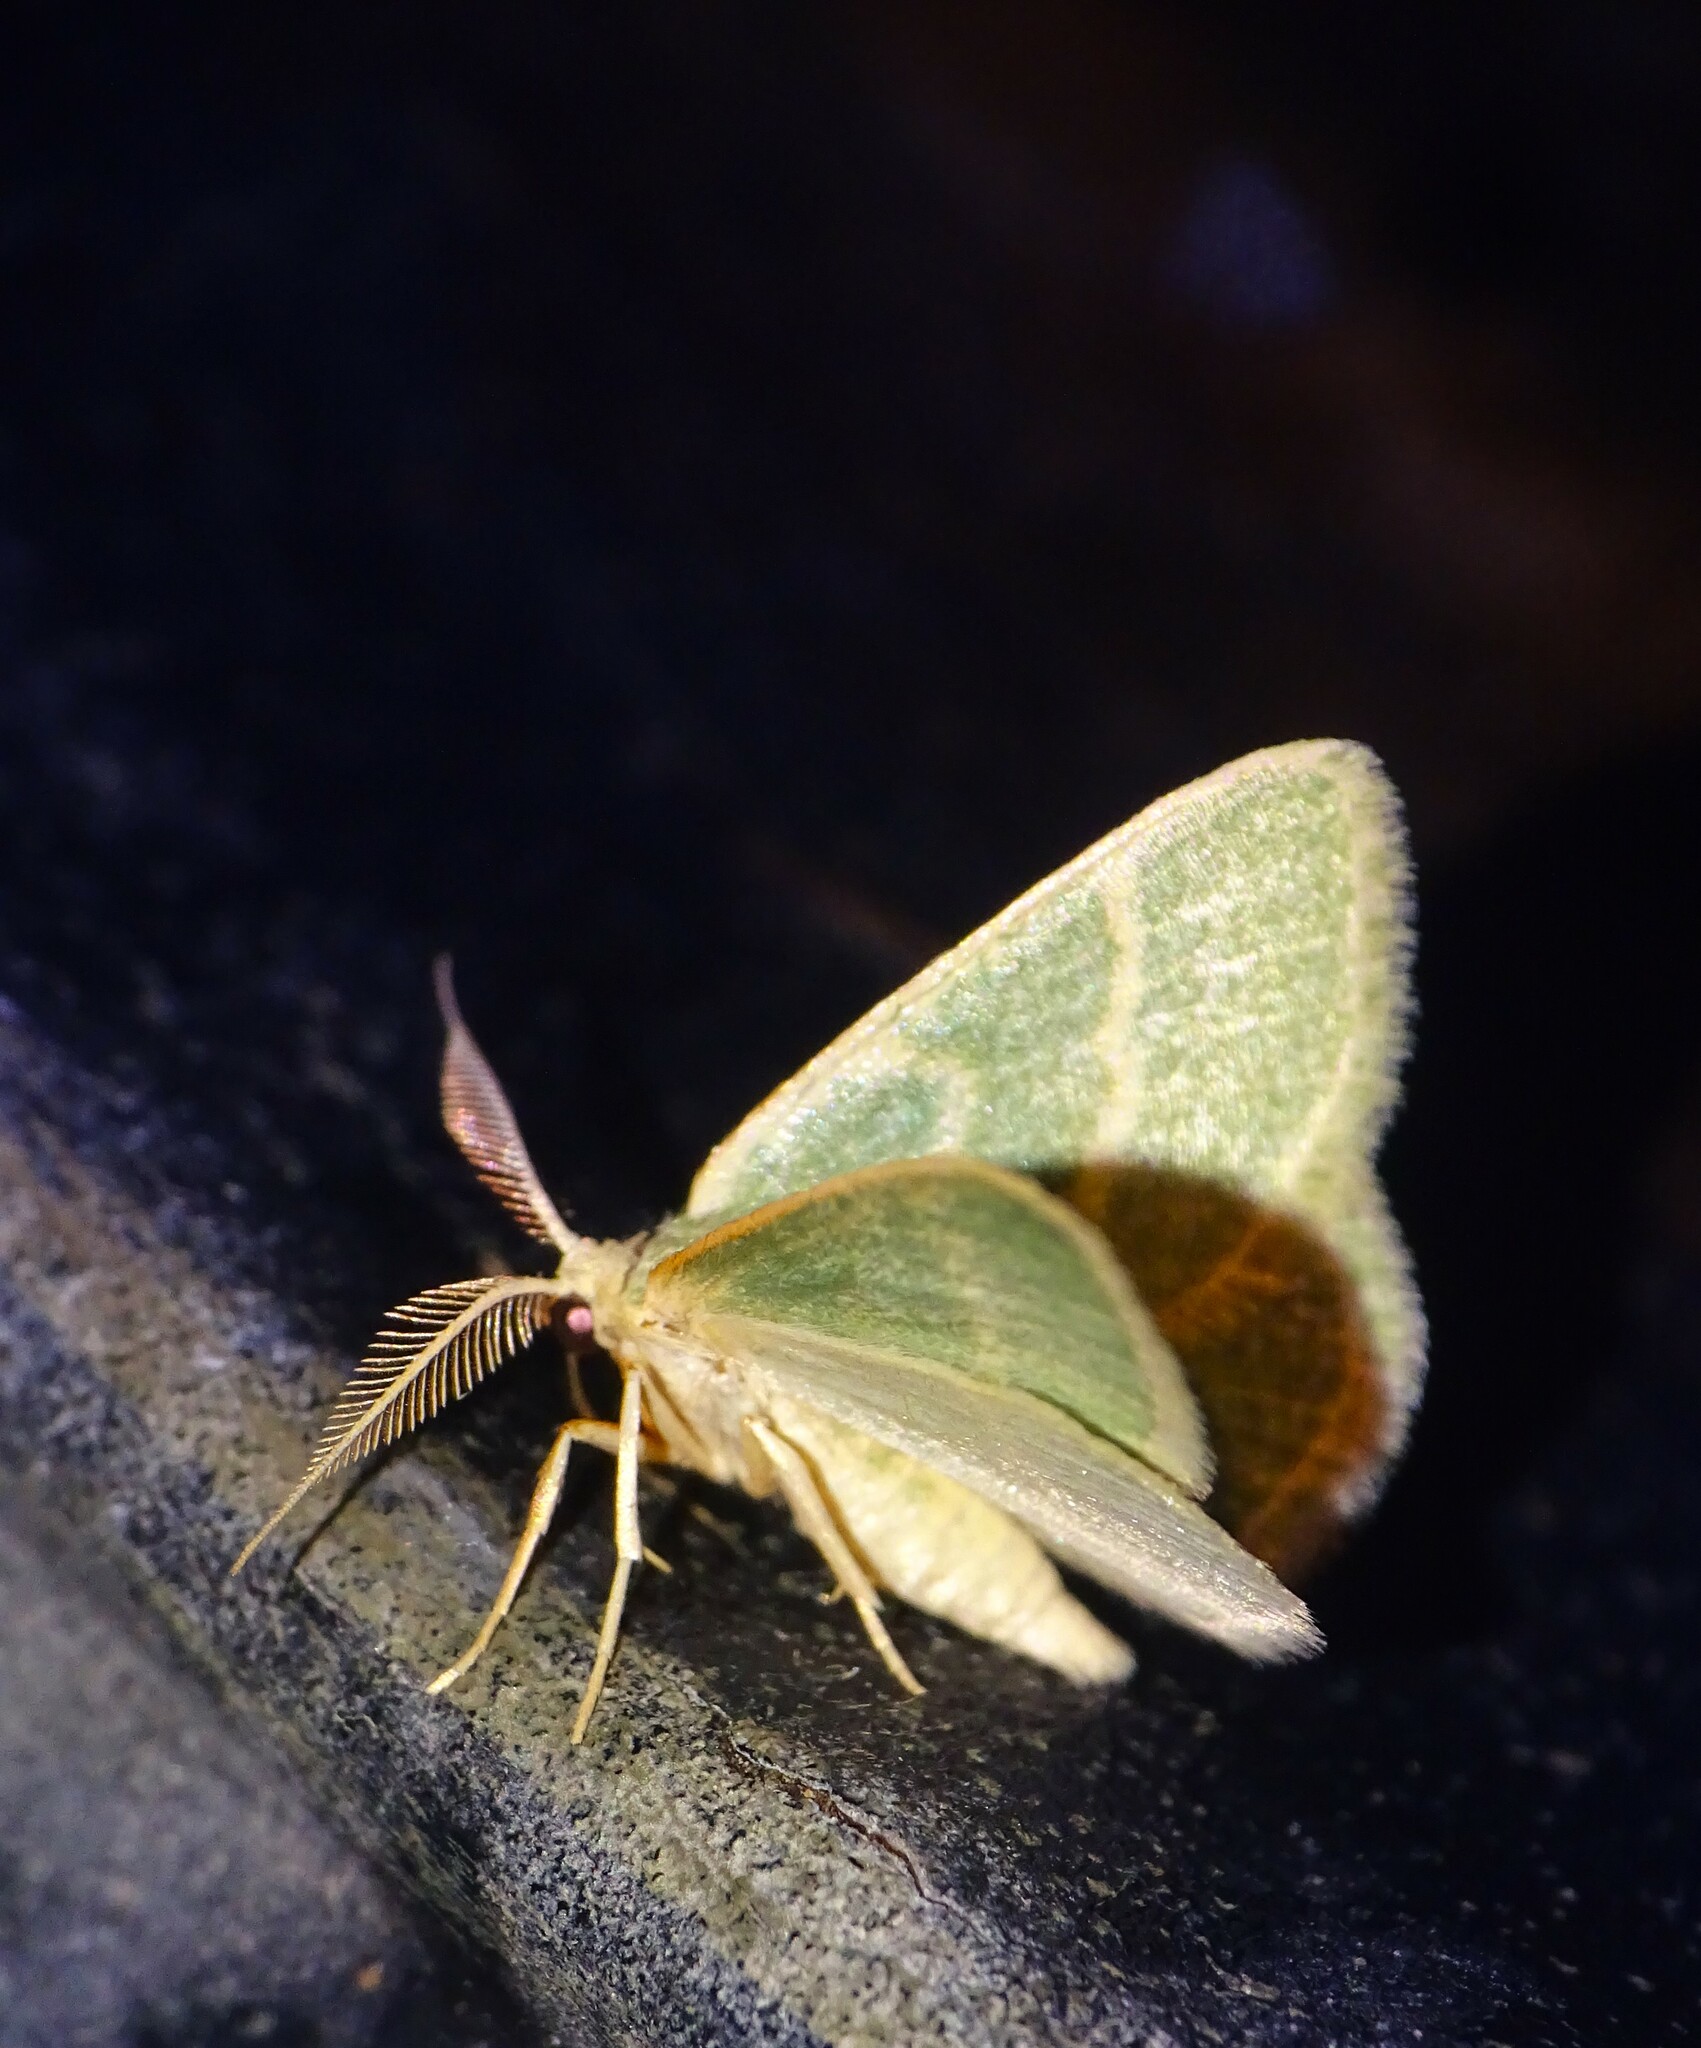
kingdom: Animalia
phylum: Arthropoda
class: Insecta
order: Lepidoptera
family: Geometridae
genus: Chlorochlamys
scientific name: Chlorochlamys chloroleucaria
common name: Blackberry looper
